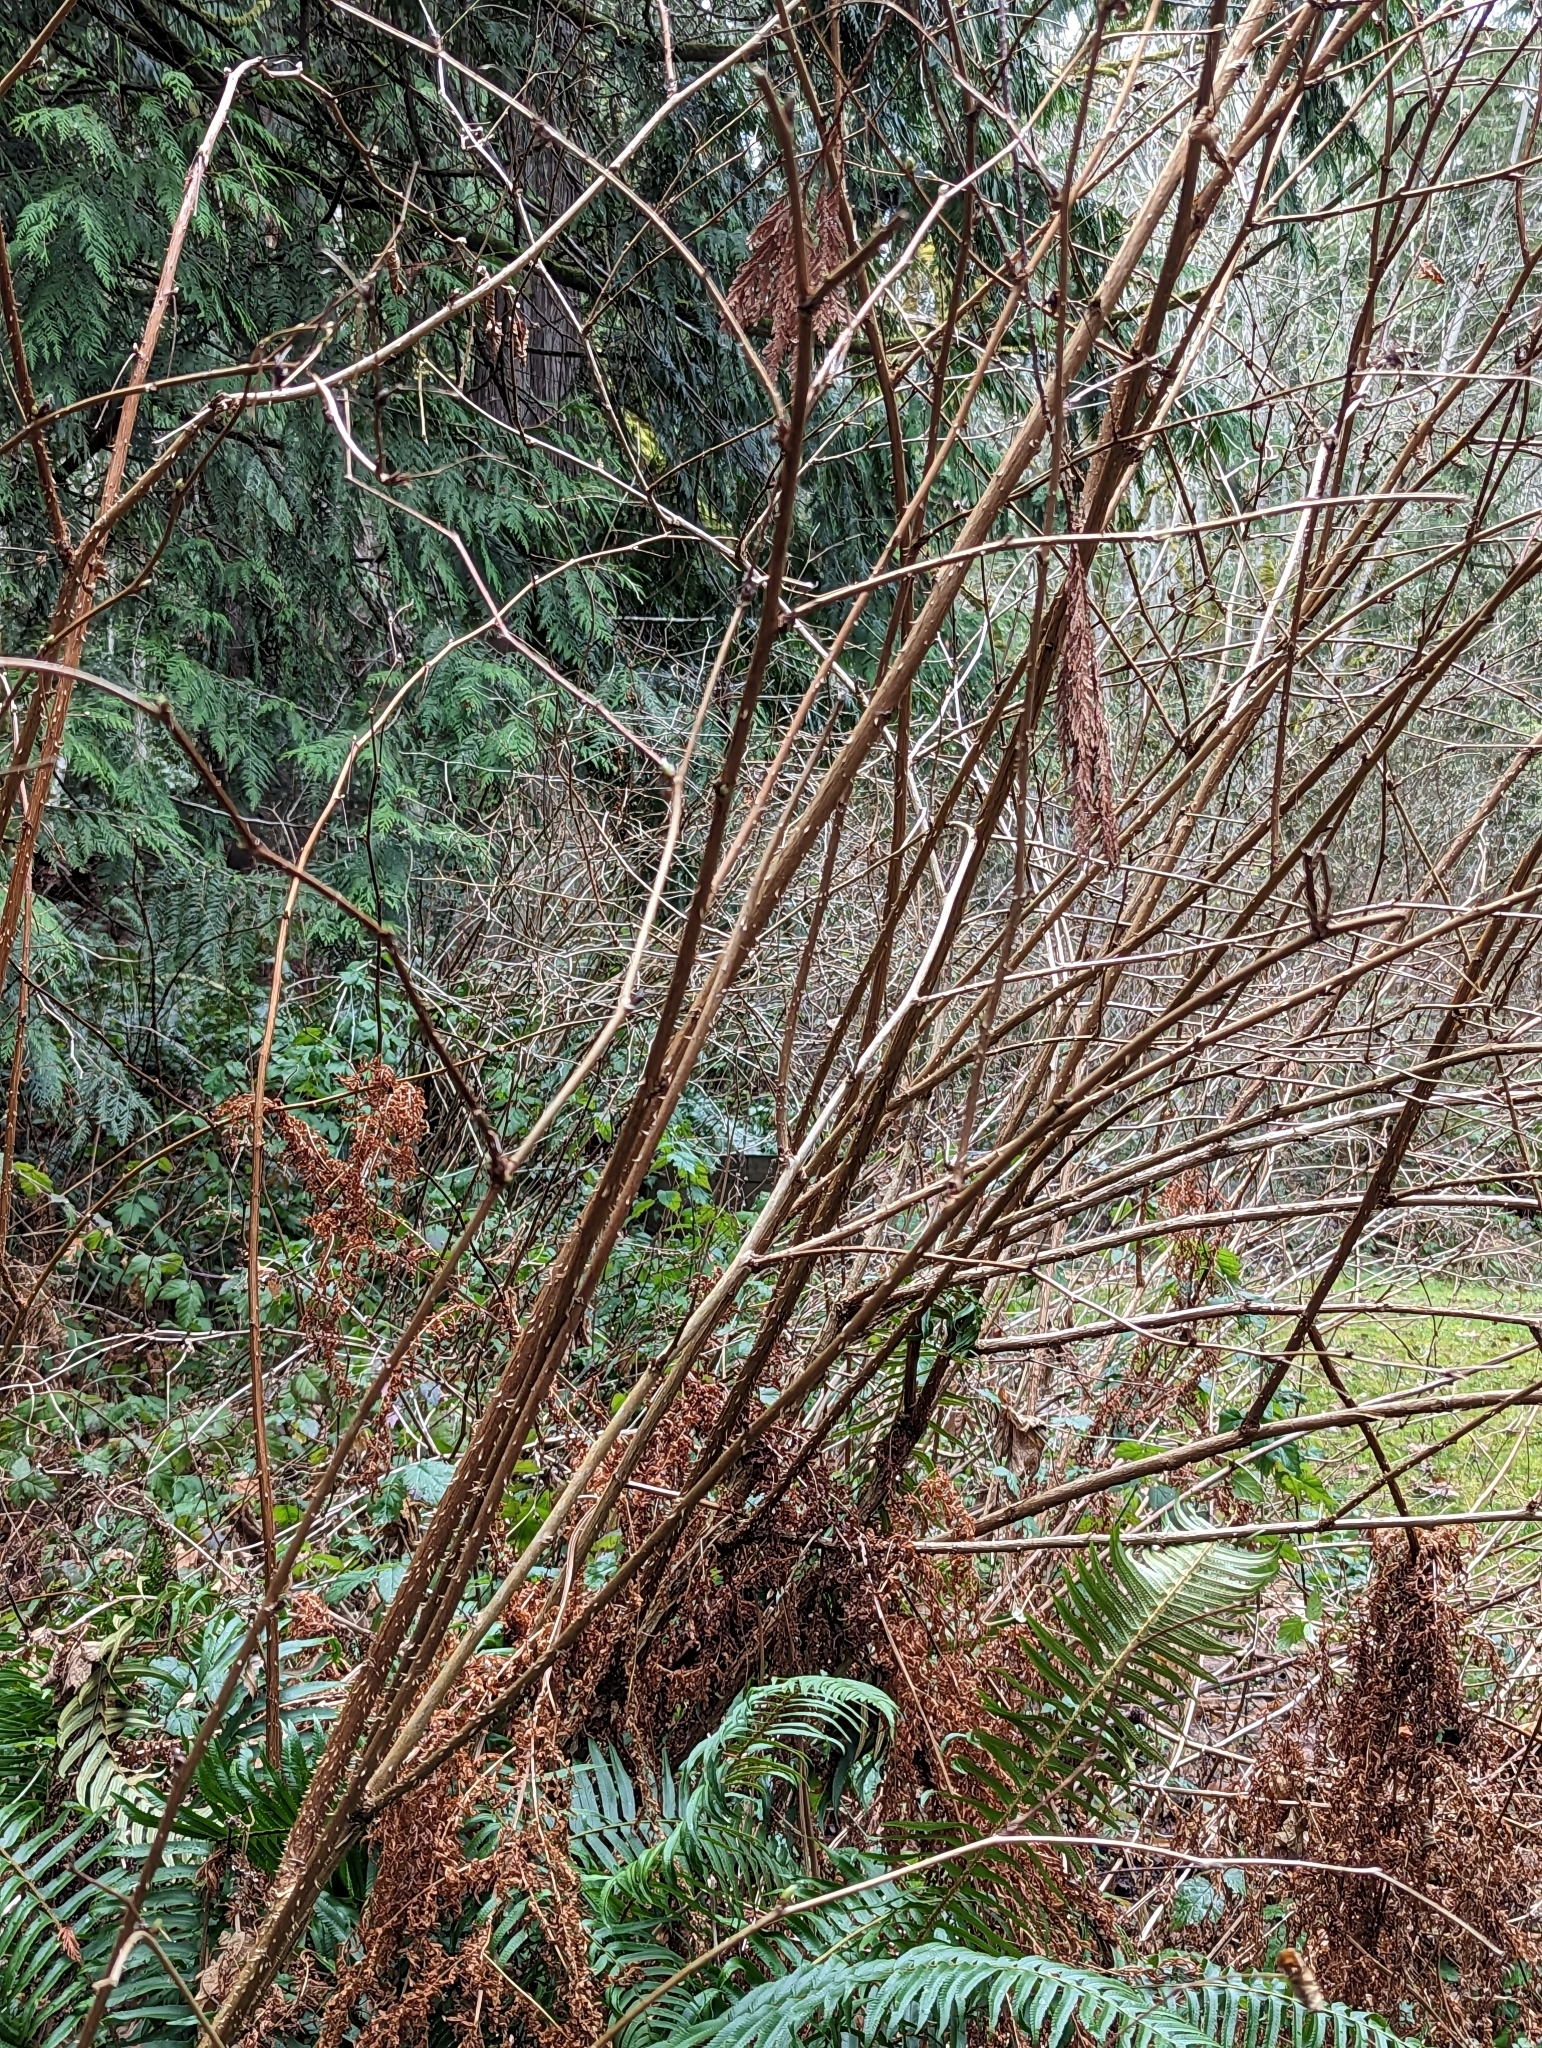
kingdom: Plantae
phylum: Tracheophyta
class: Magnoliopsida
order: Rosales
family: Rosaceae
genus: Rubus
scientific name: Rubus spectabilis
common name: Salmonberry
